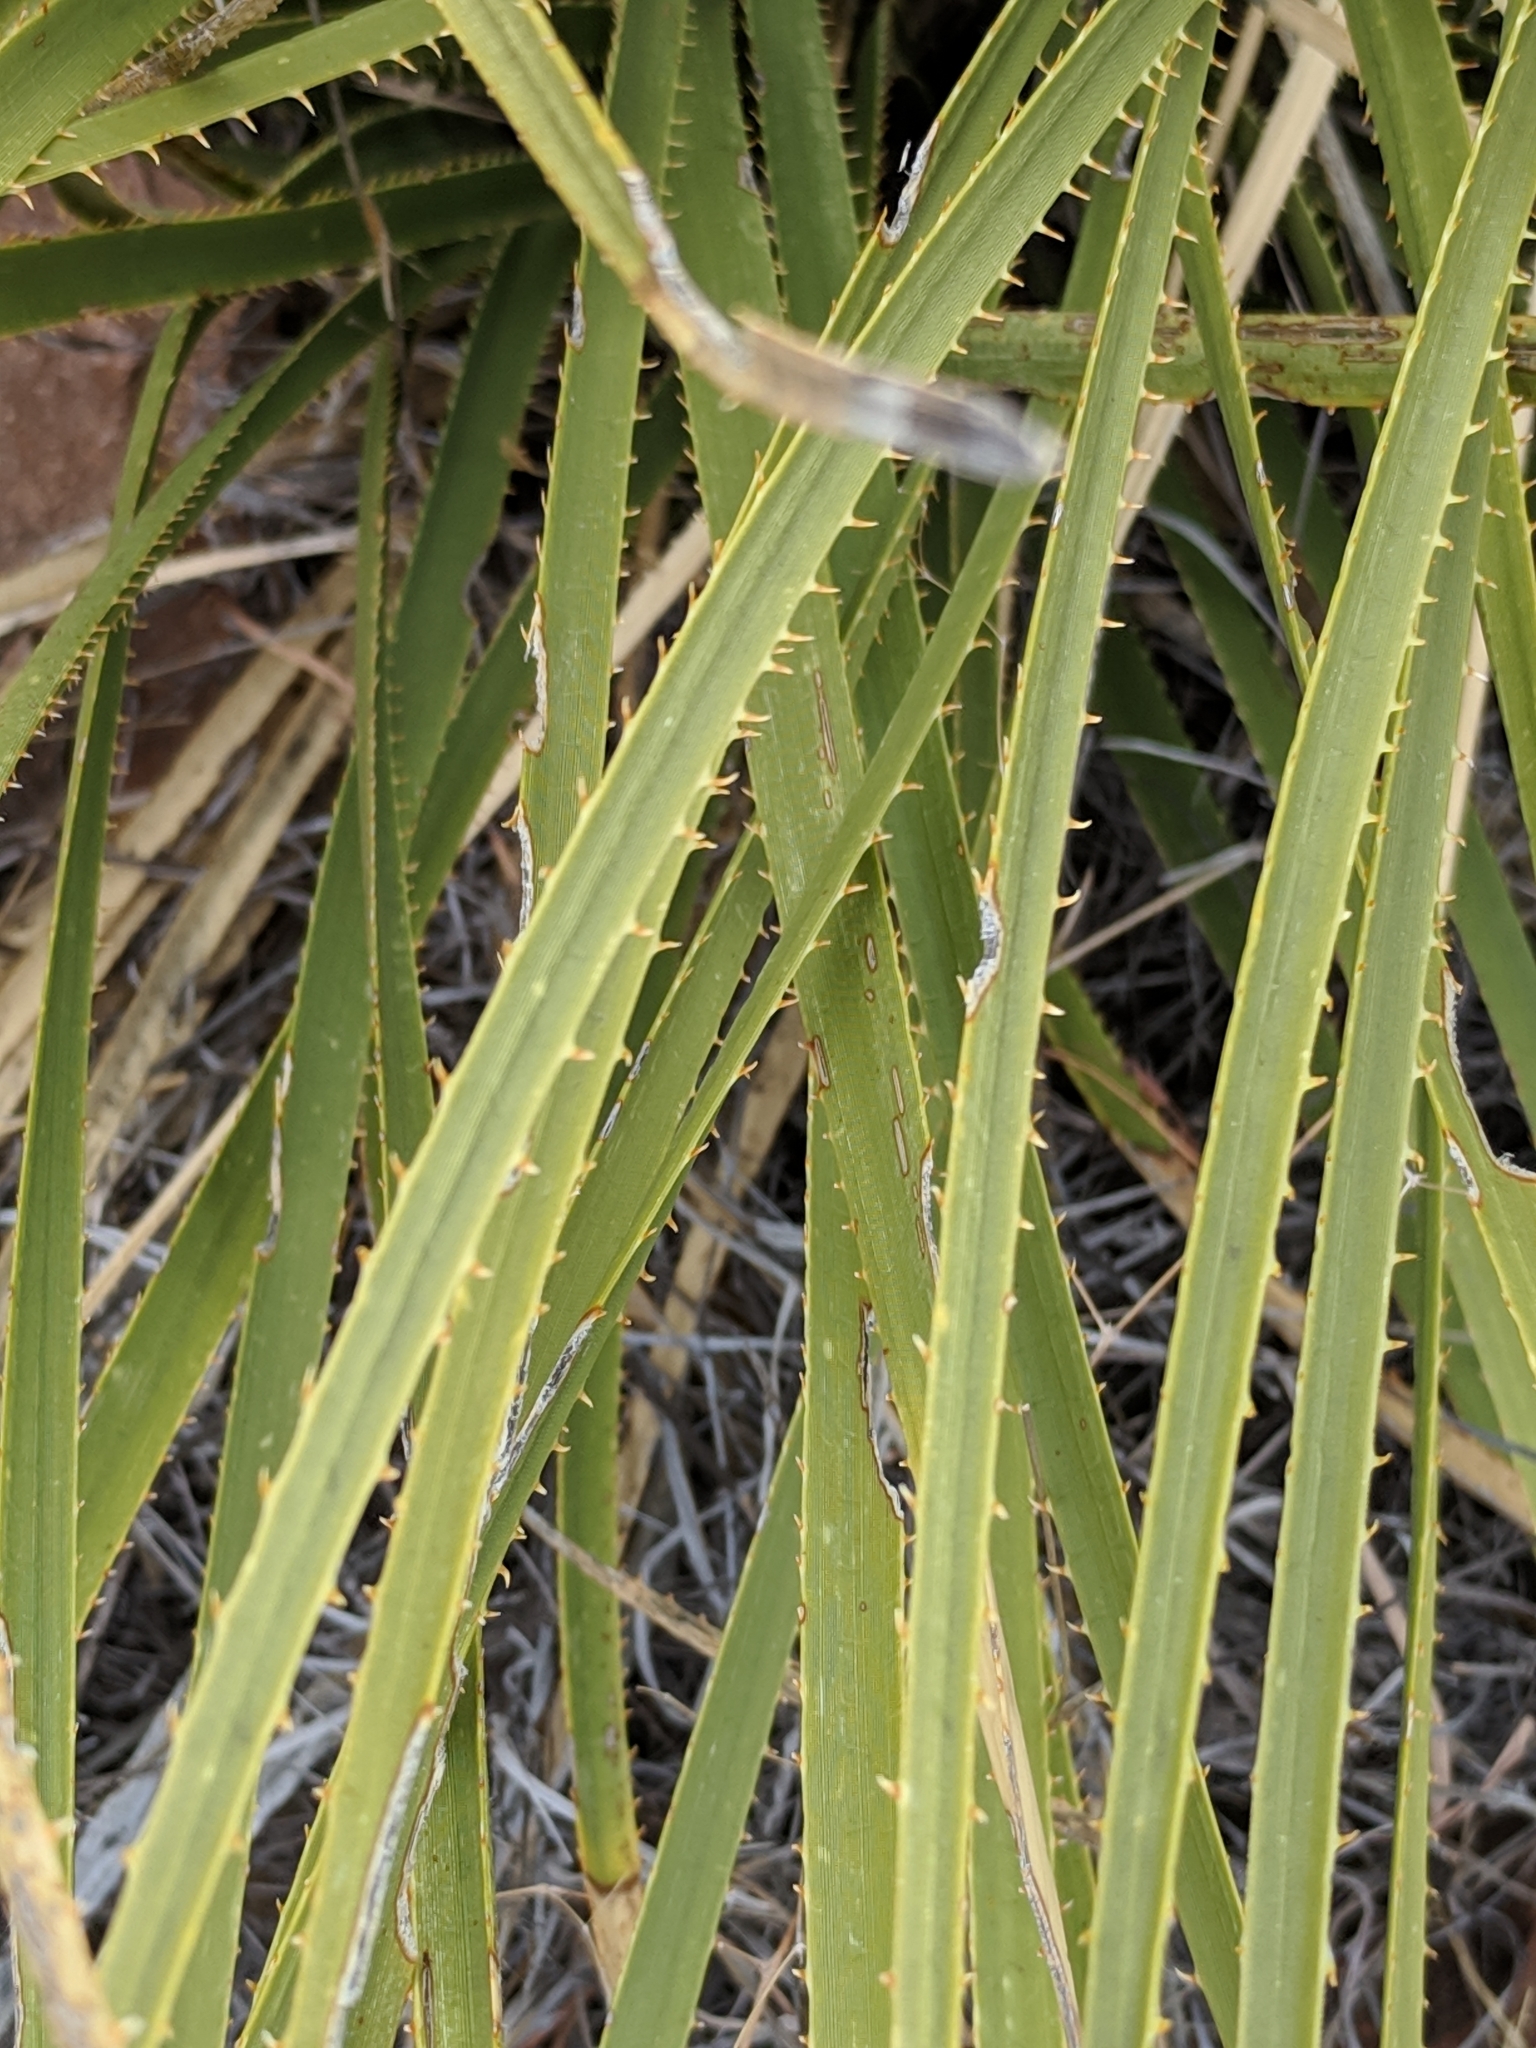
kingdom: Plantae
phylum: Tracheophyta
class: Liliopsida
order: Asparagales
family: Asparagaceae
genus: Dasylirion
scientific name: Dasylirion leiophyllum
